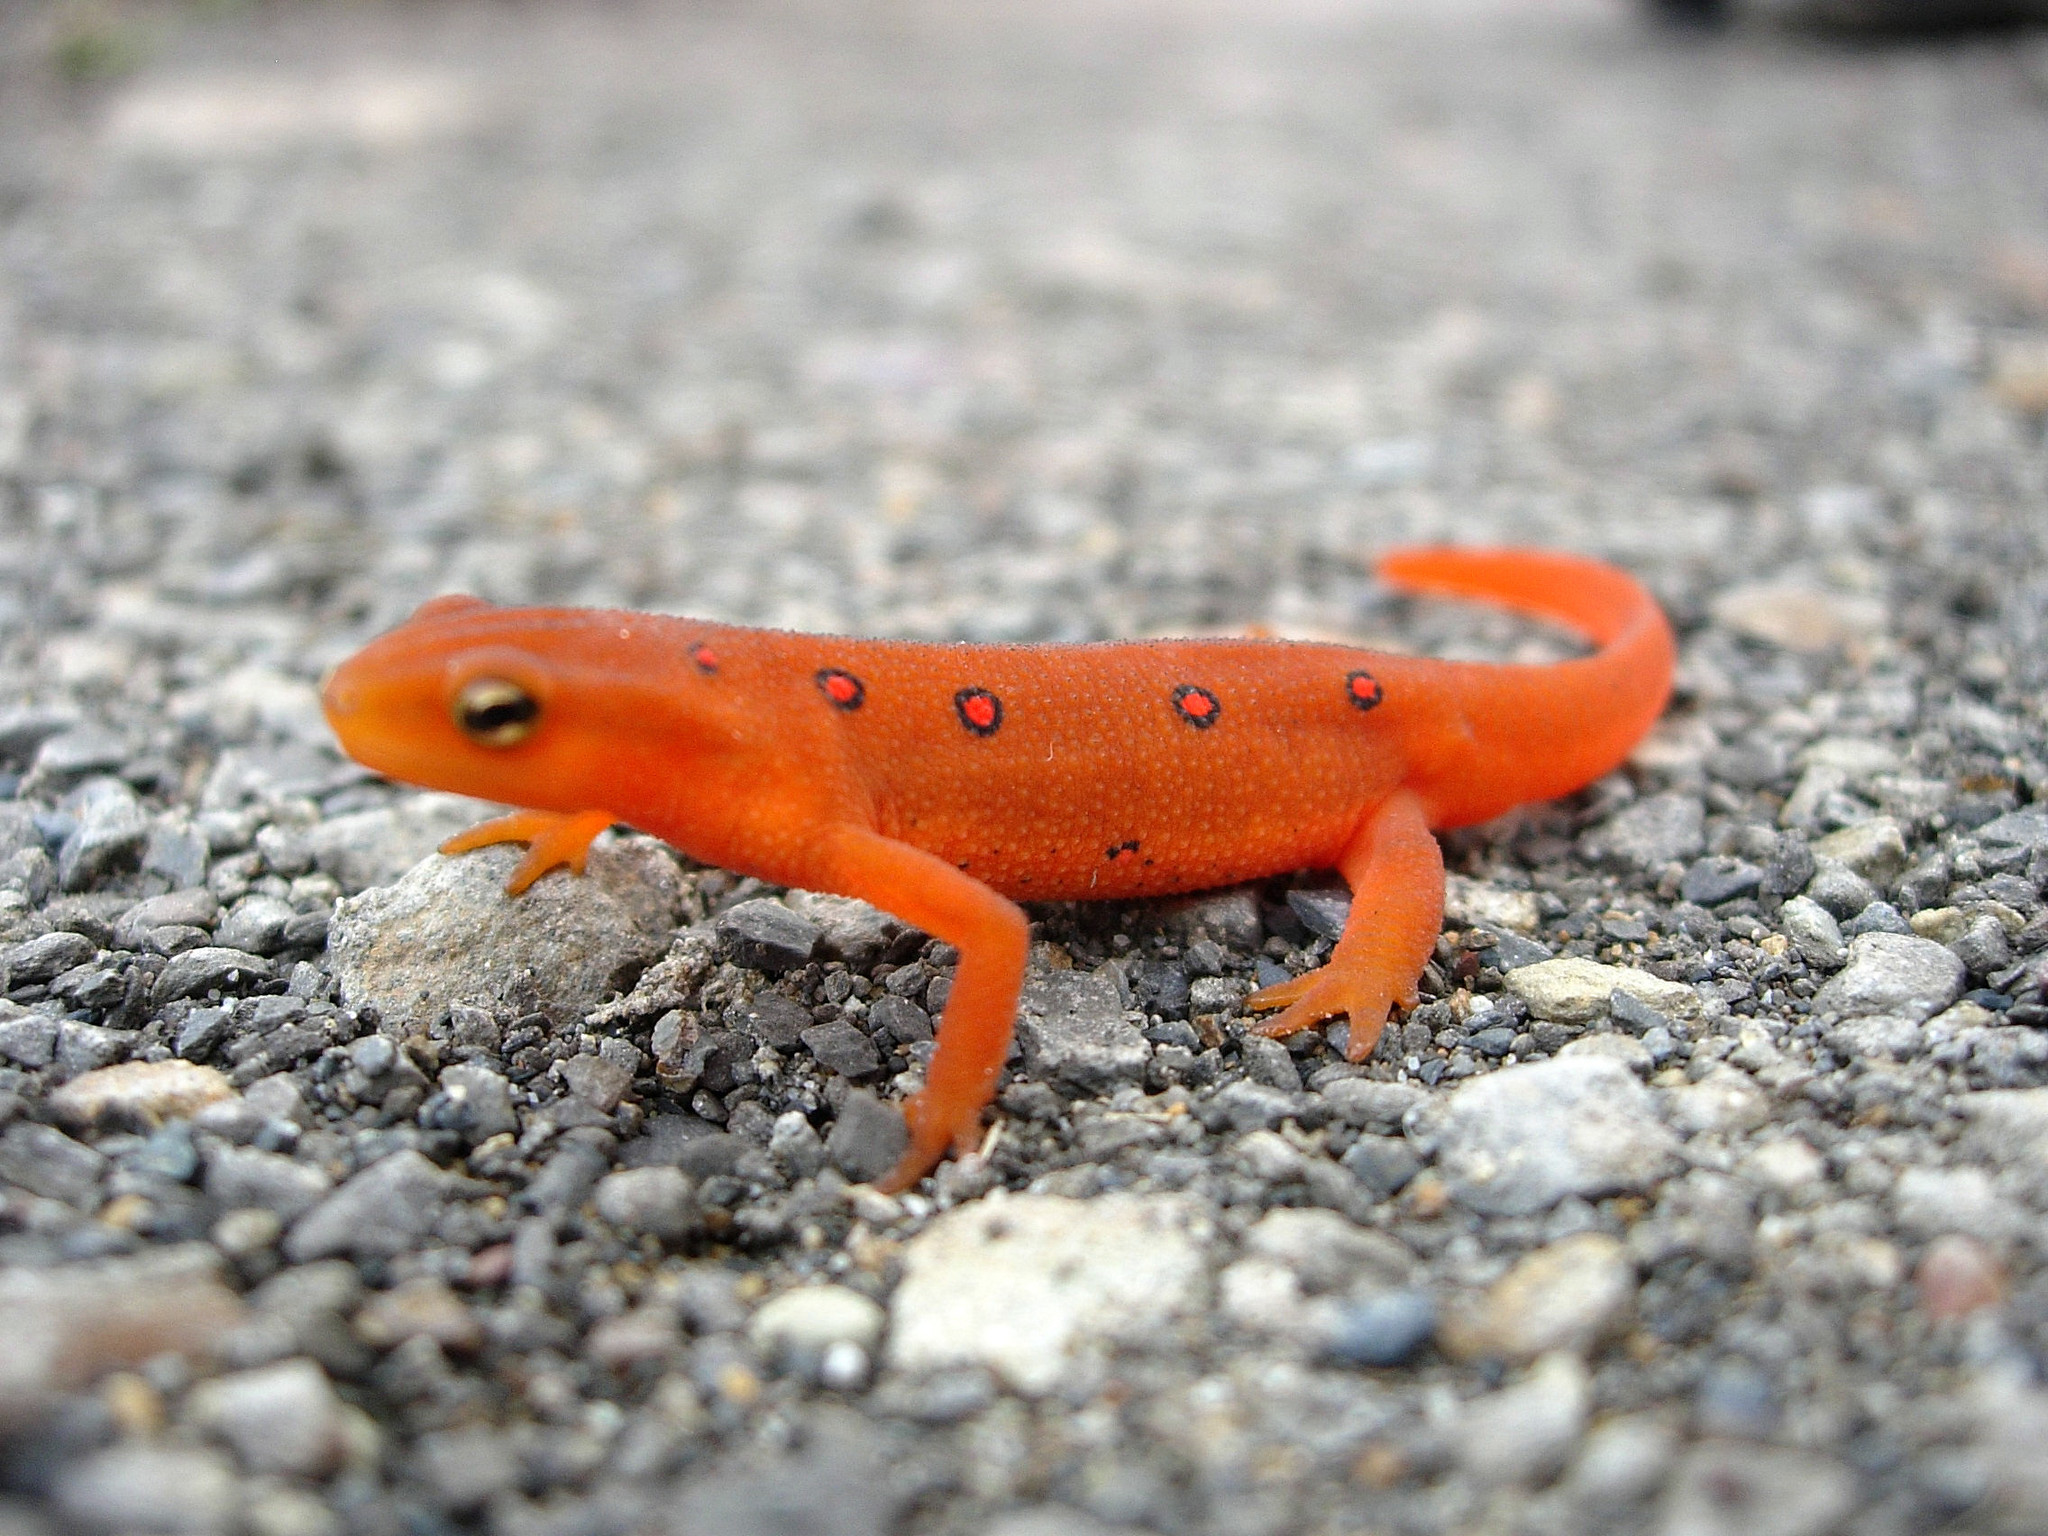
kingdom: Animalia
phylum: Chordata
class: Amphibia
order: Caudata
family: Salamandridae
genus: Notophthalmus
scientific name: Notophthalmus viridescens
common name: Eastern newt
